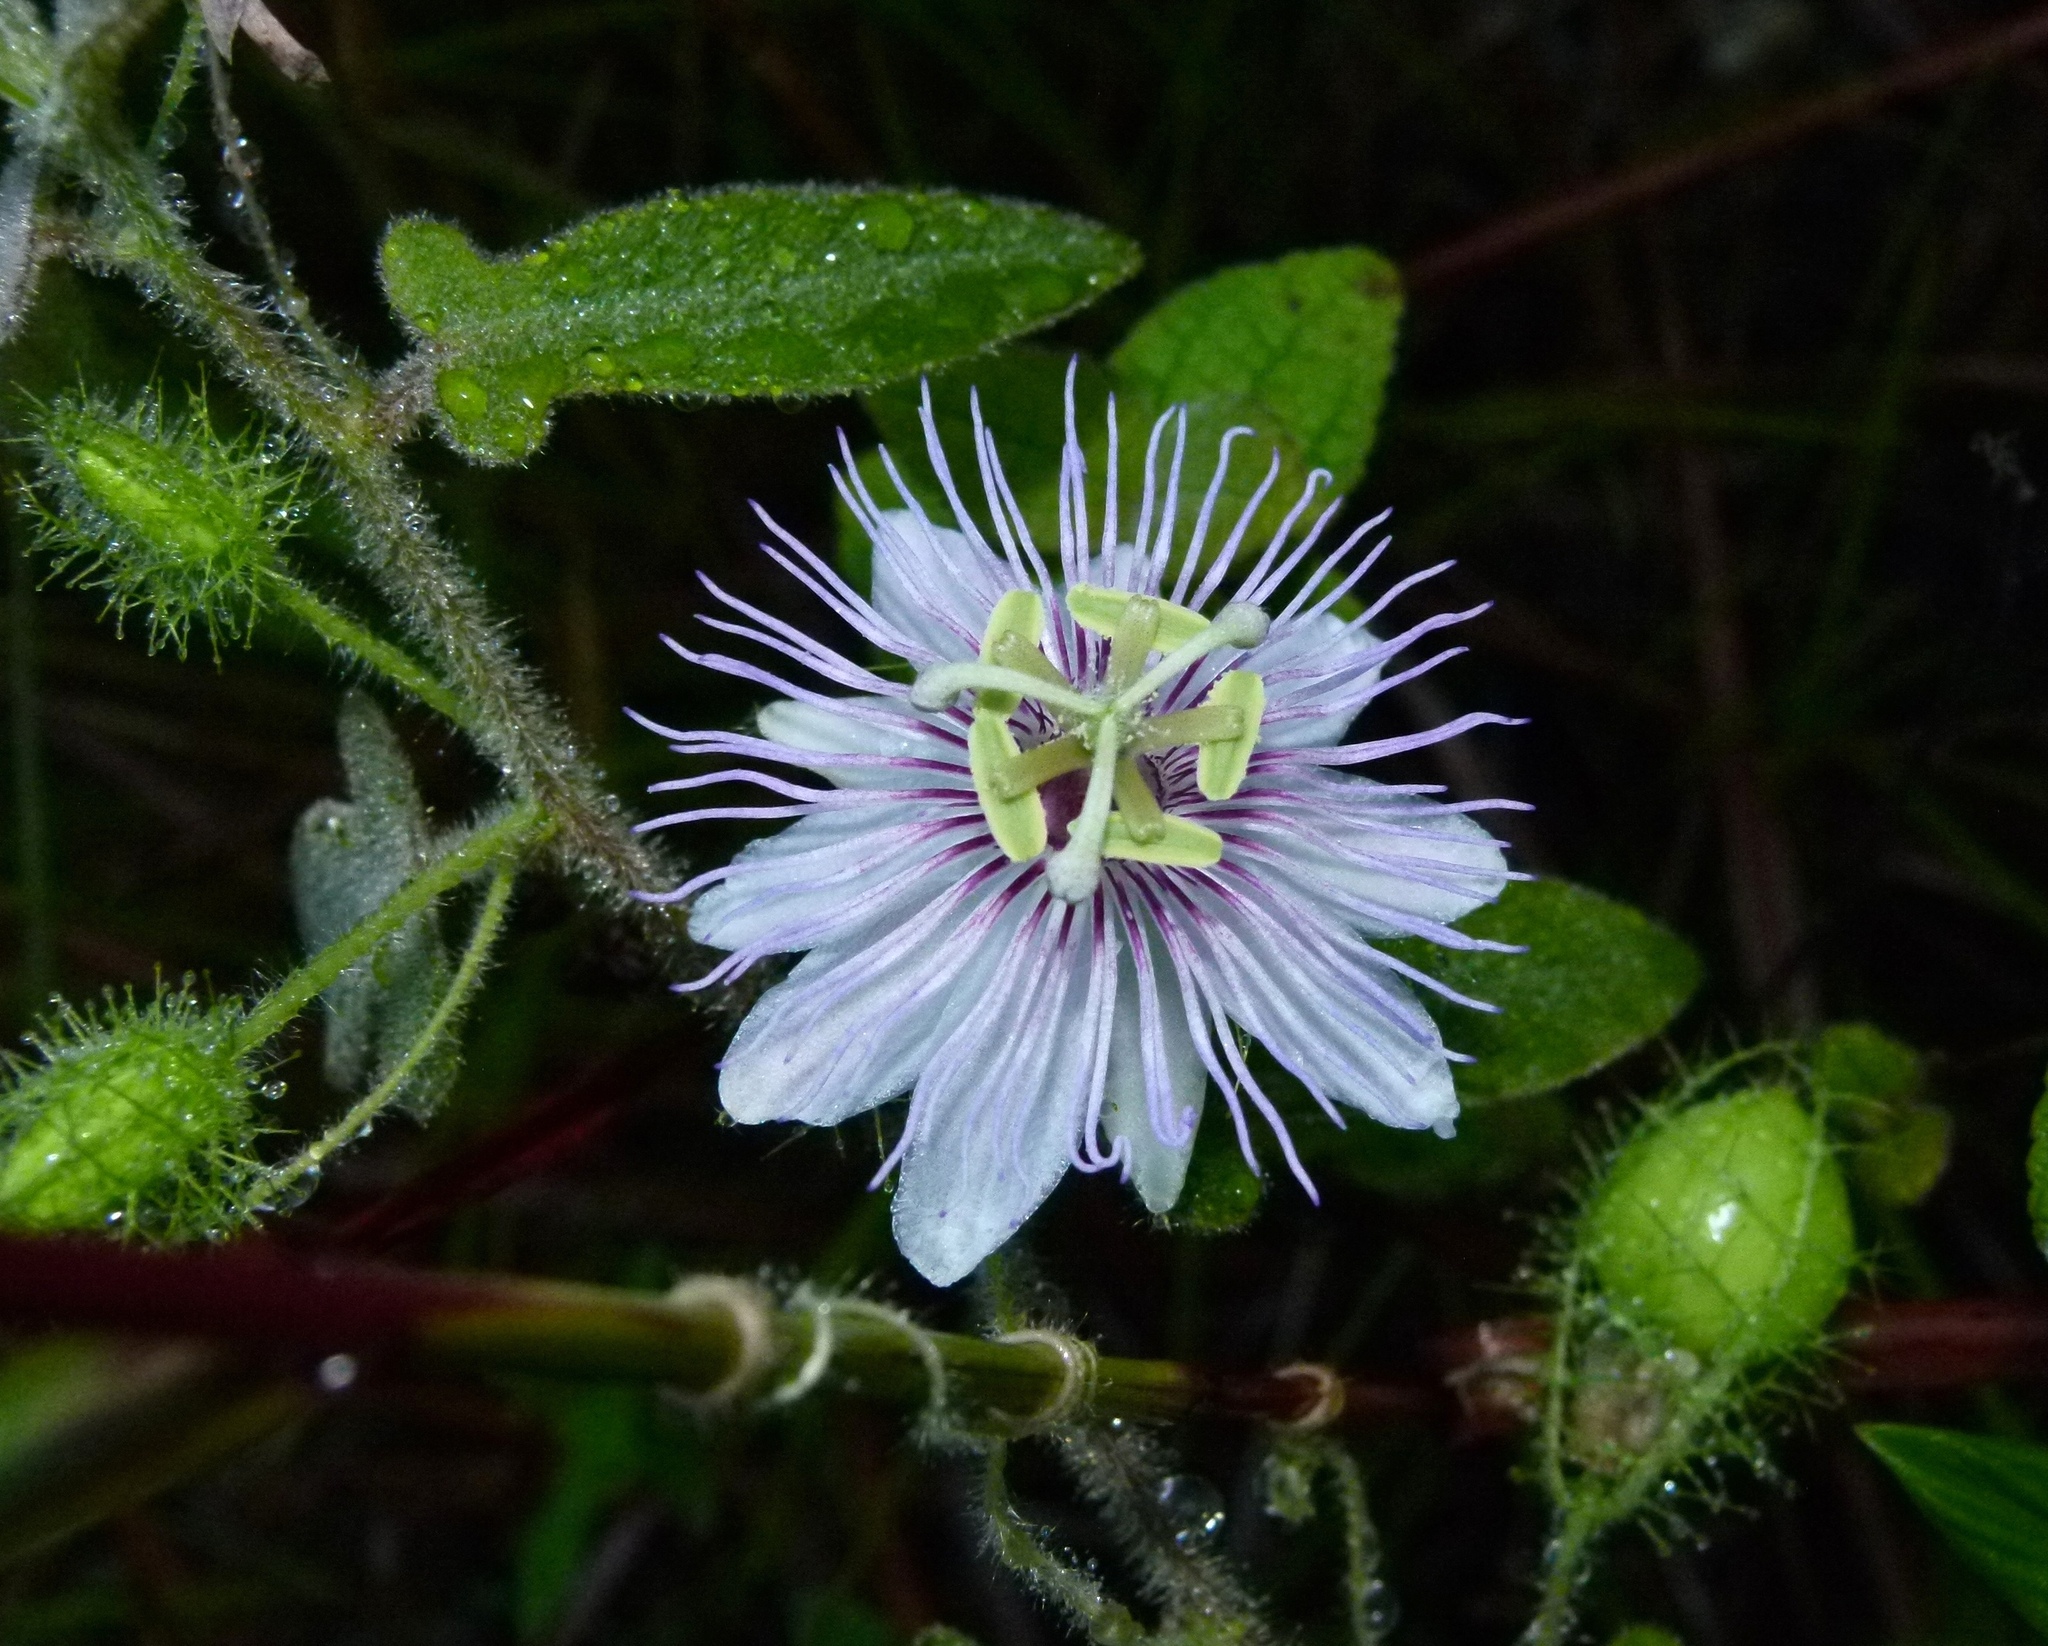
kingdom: Plantae
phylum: Tracheophyta
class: Magnoliopsida
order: Malpighiales
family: Passifloraceae
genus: Passiflora
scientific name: Passiflora foetida
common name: Fetid passionflower
